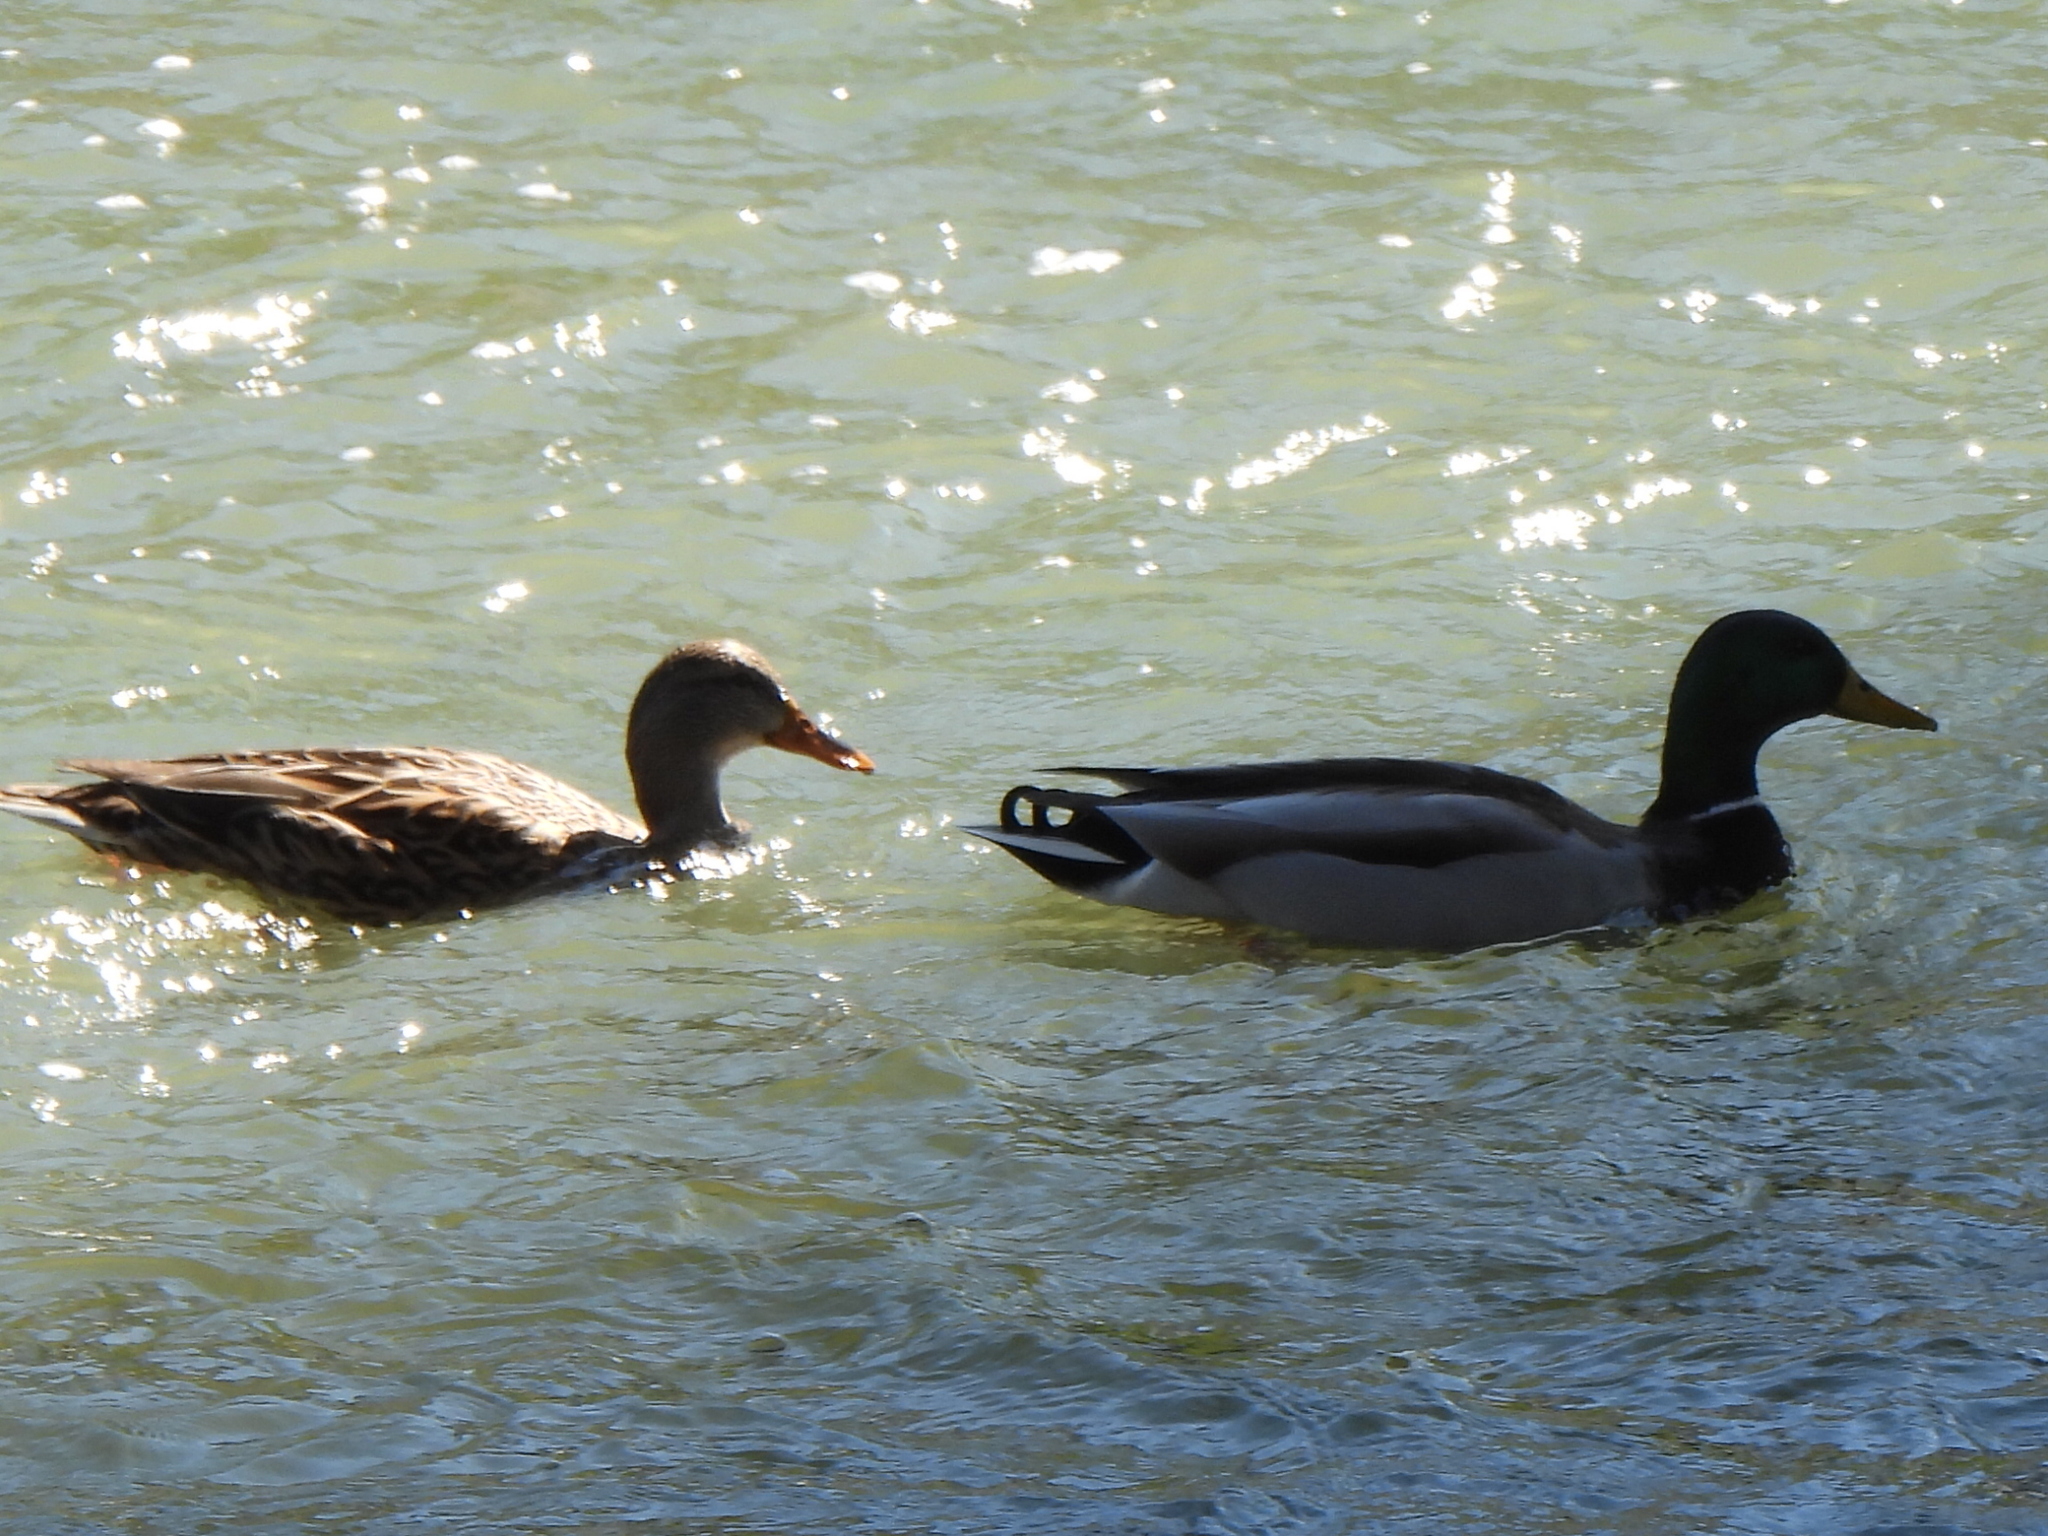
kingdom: Animalia
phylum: Chordata
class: Aves
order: Anseriformes
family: Anatidae
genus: Anas
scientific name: Anas platyrhynchos
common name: Mallard
